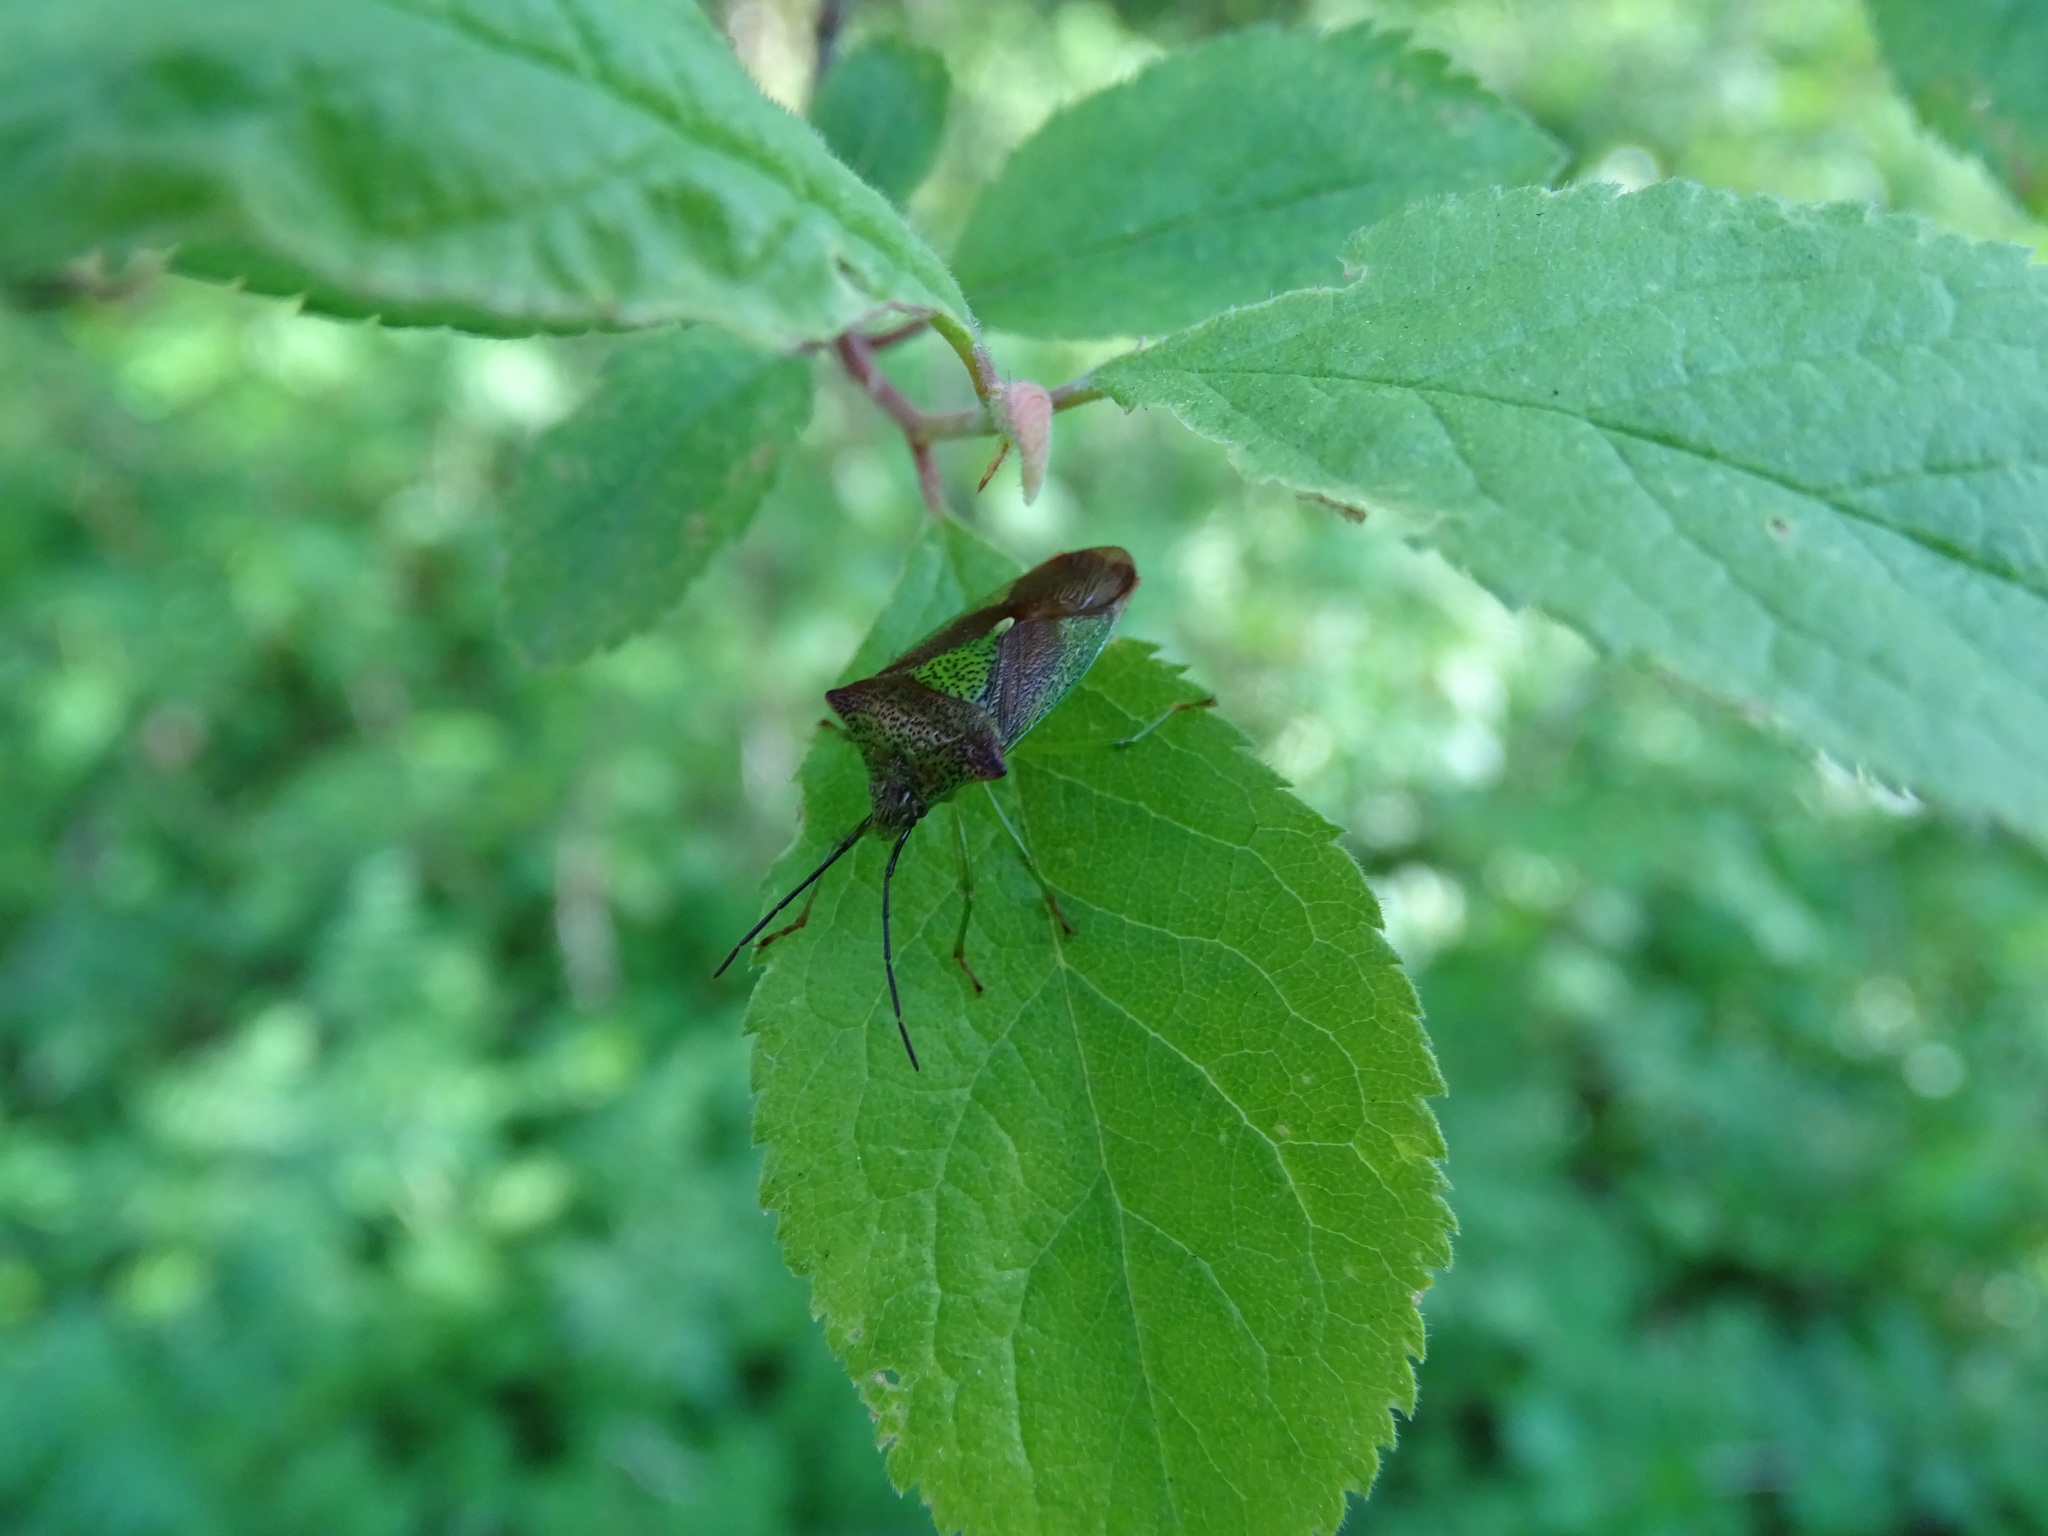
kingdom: Animalia
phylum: Arthropoda
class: Insecta
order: Hemiptera
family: Acanthosomatidae
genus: Acanthosoma
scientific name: Acanthosoma haemorrhoidale
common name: Hawthorn shieldbug
